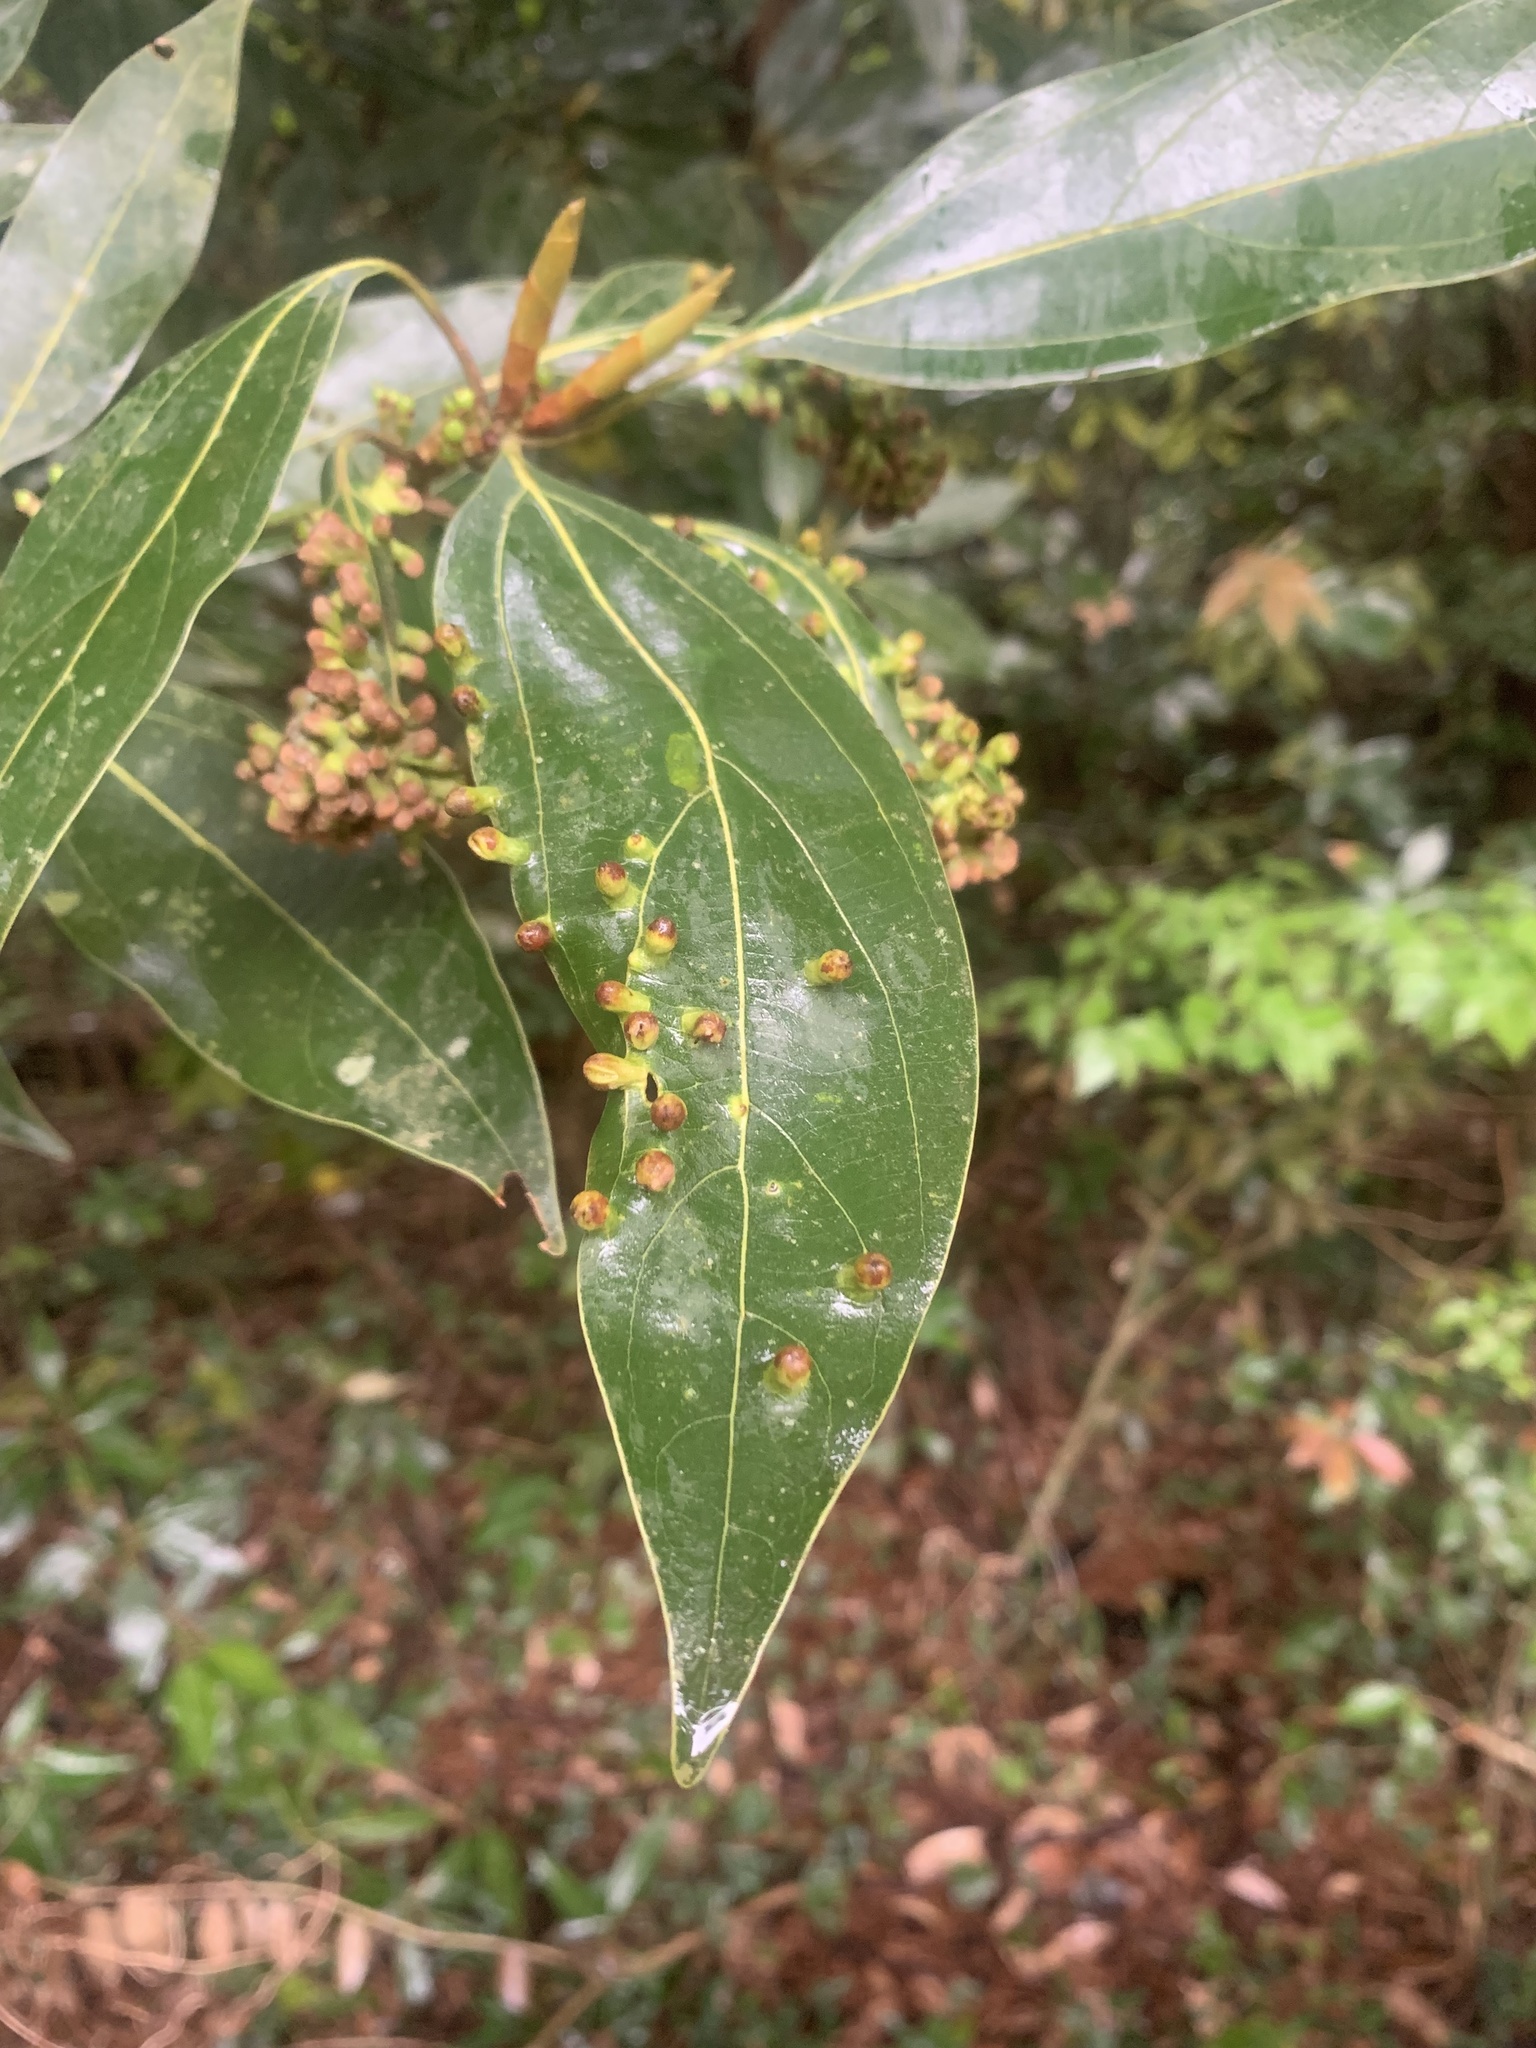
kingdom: Animalia
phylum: Arthropoda
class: Insecta
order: Diptera
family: Cecidomyiidae
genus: Pseudasphondylia
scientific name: Pseudasphondylia neolitseae
